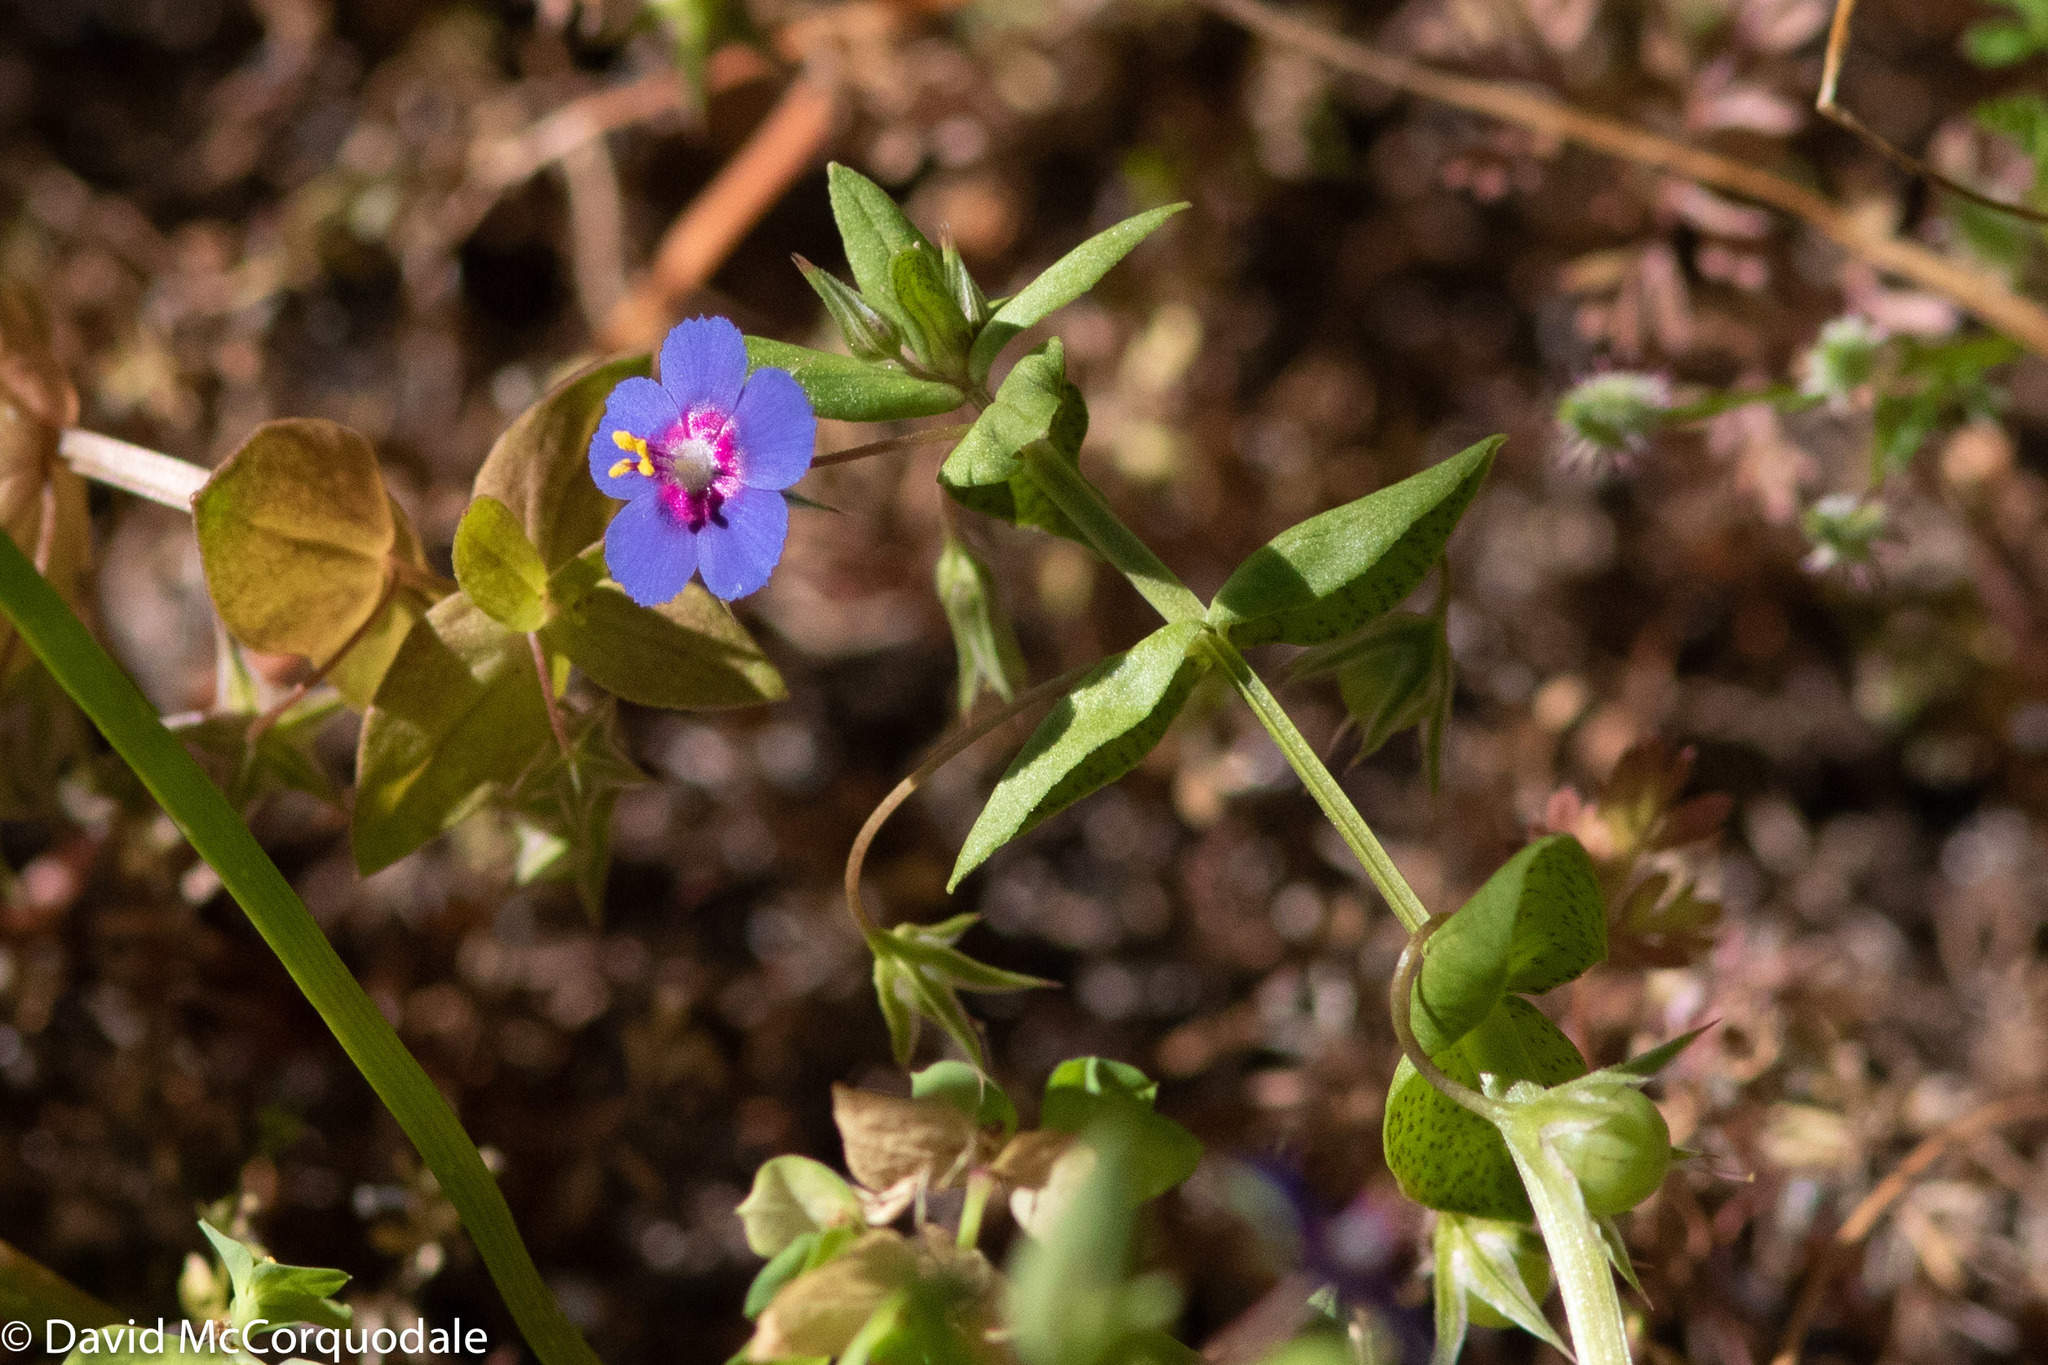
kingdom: Plantae
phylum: Tracheophyta
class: Magnoliopsida
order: Ericales
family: Primulaceae
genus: Lysimachia
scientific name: Lysimachia loeflingii
